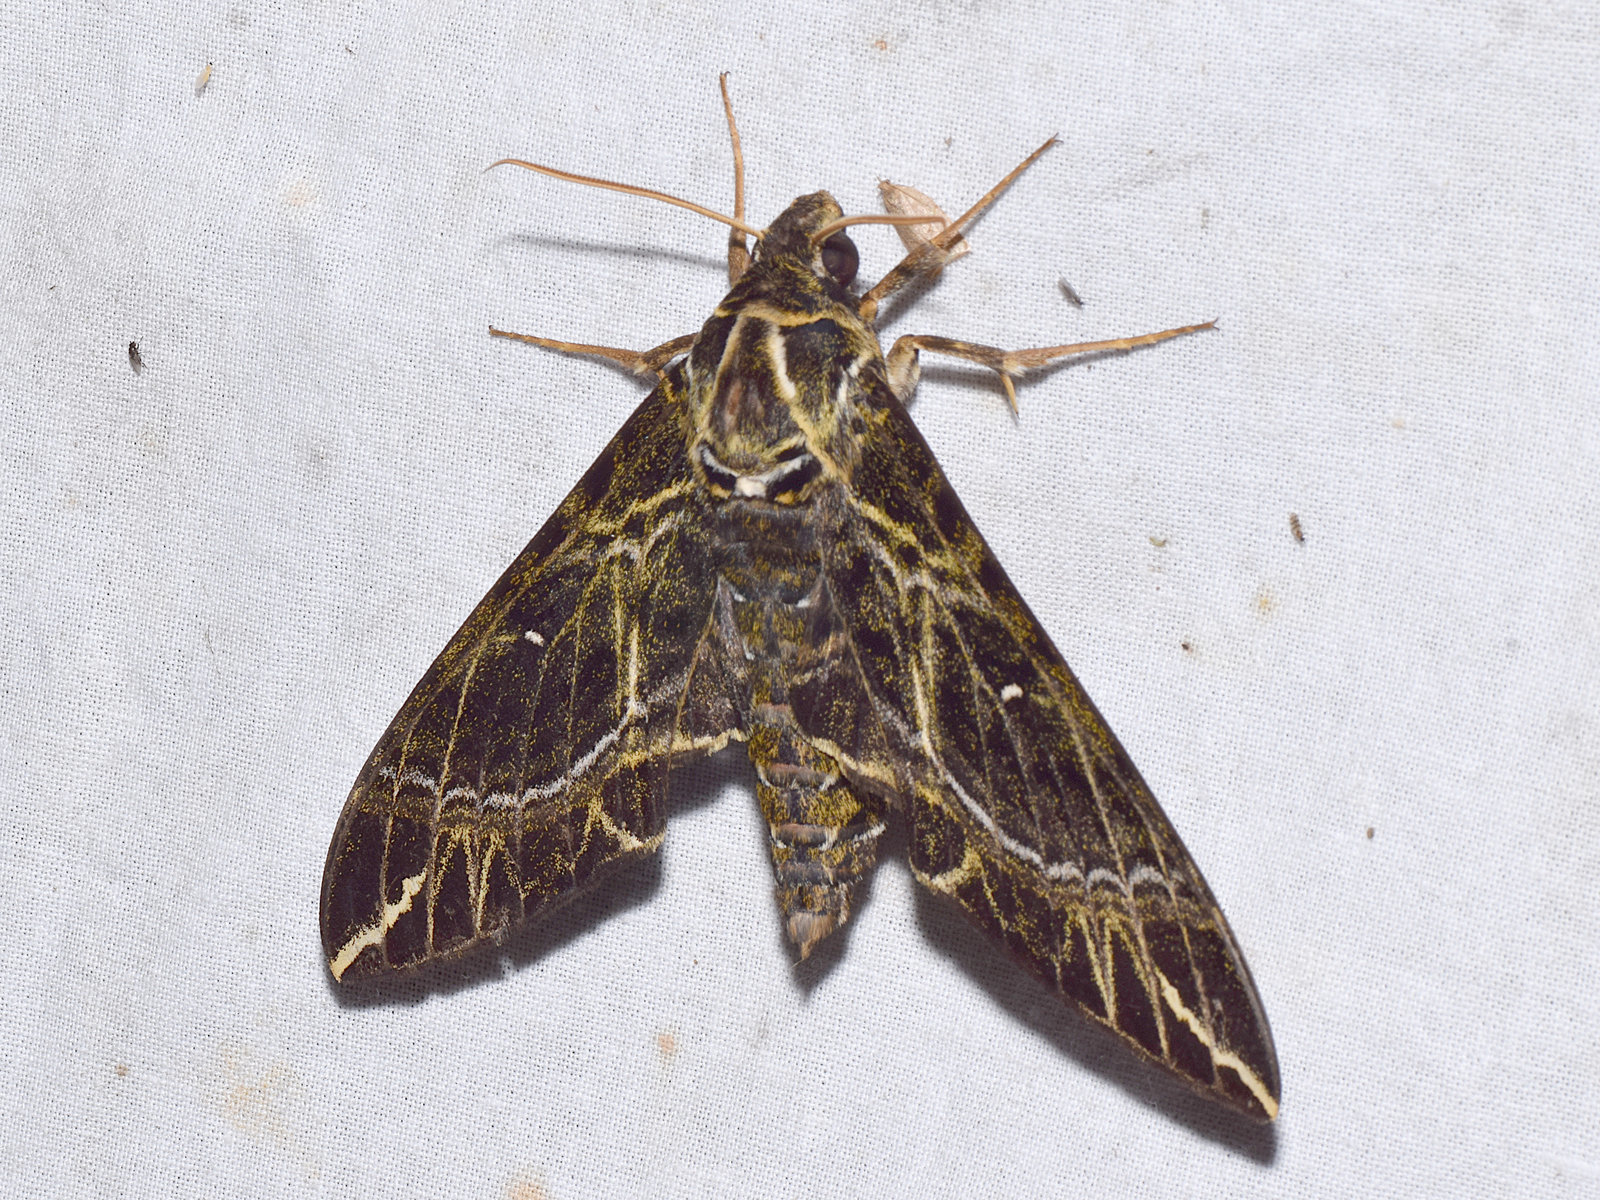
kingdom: Animalia
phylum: Arthropoda
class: Insecta
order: Lepidoptera
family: Sphingidae
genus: Apocalypsis
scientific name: Apocalypsis velox
